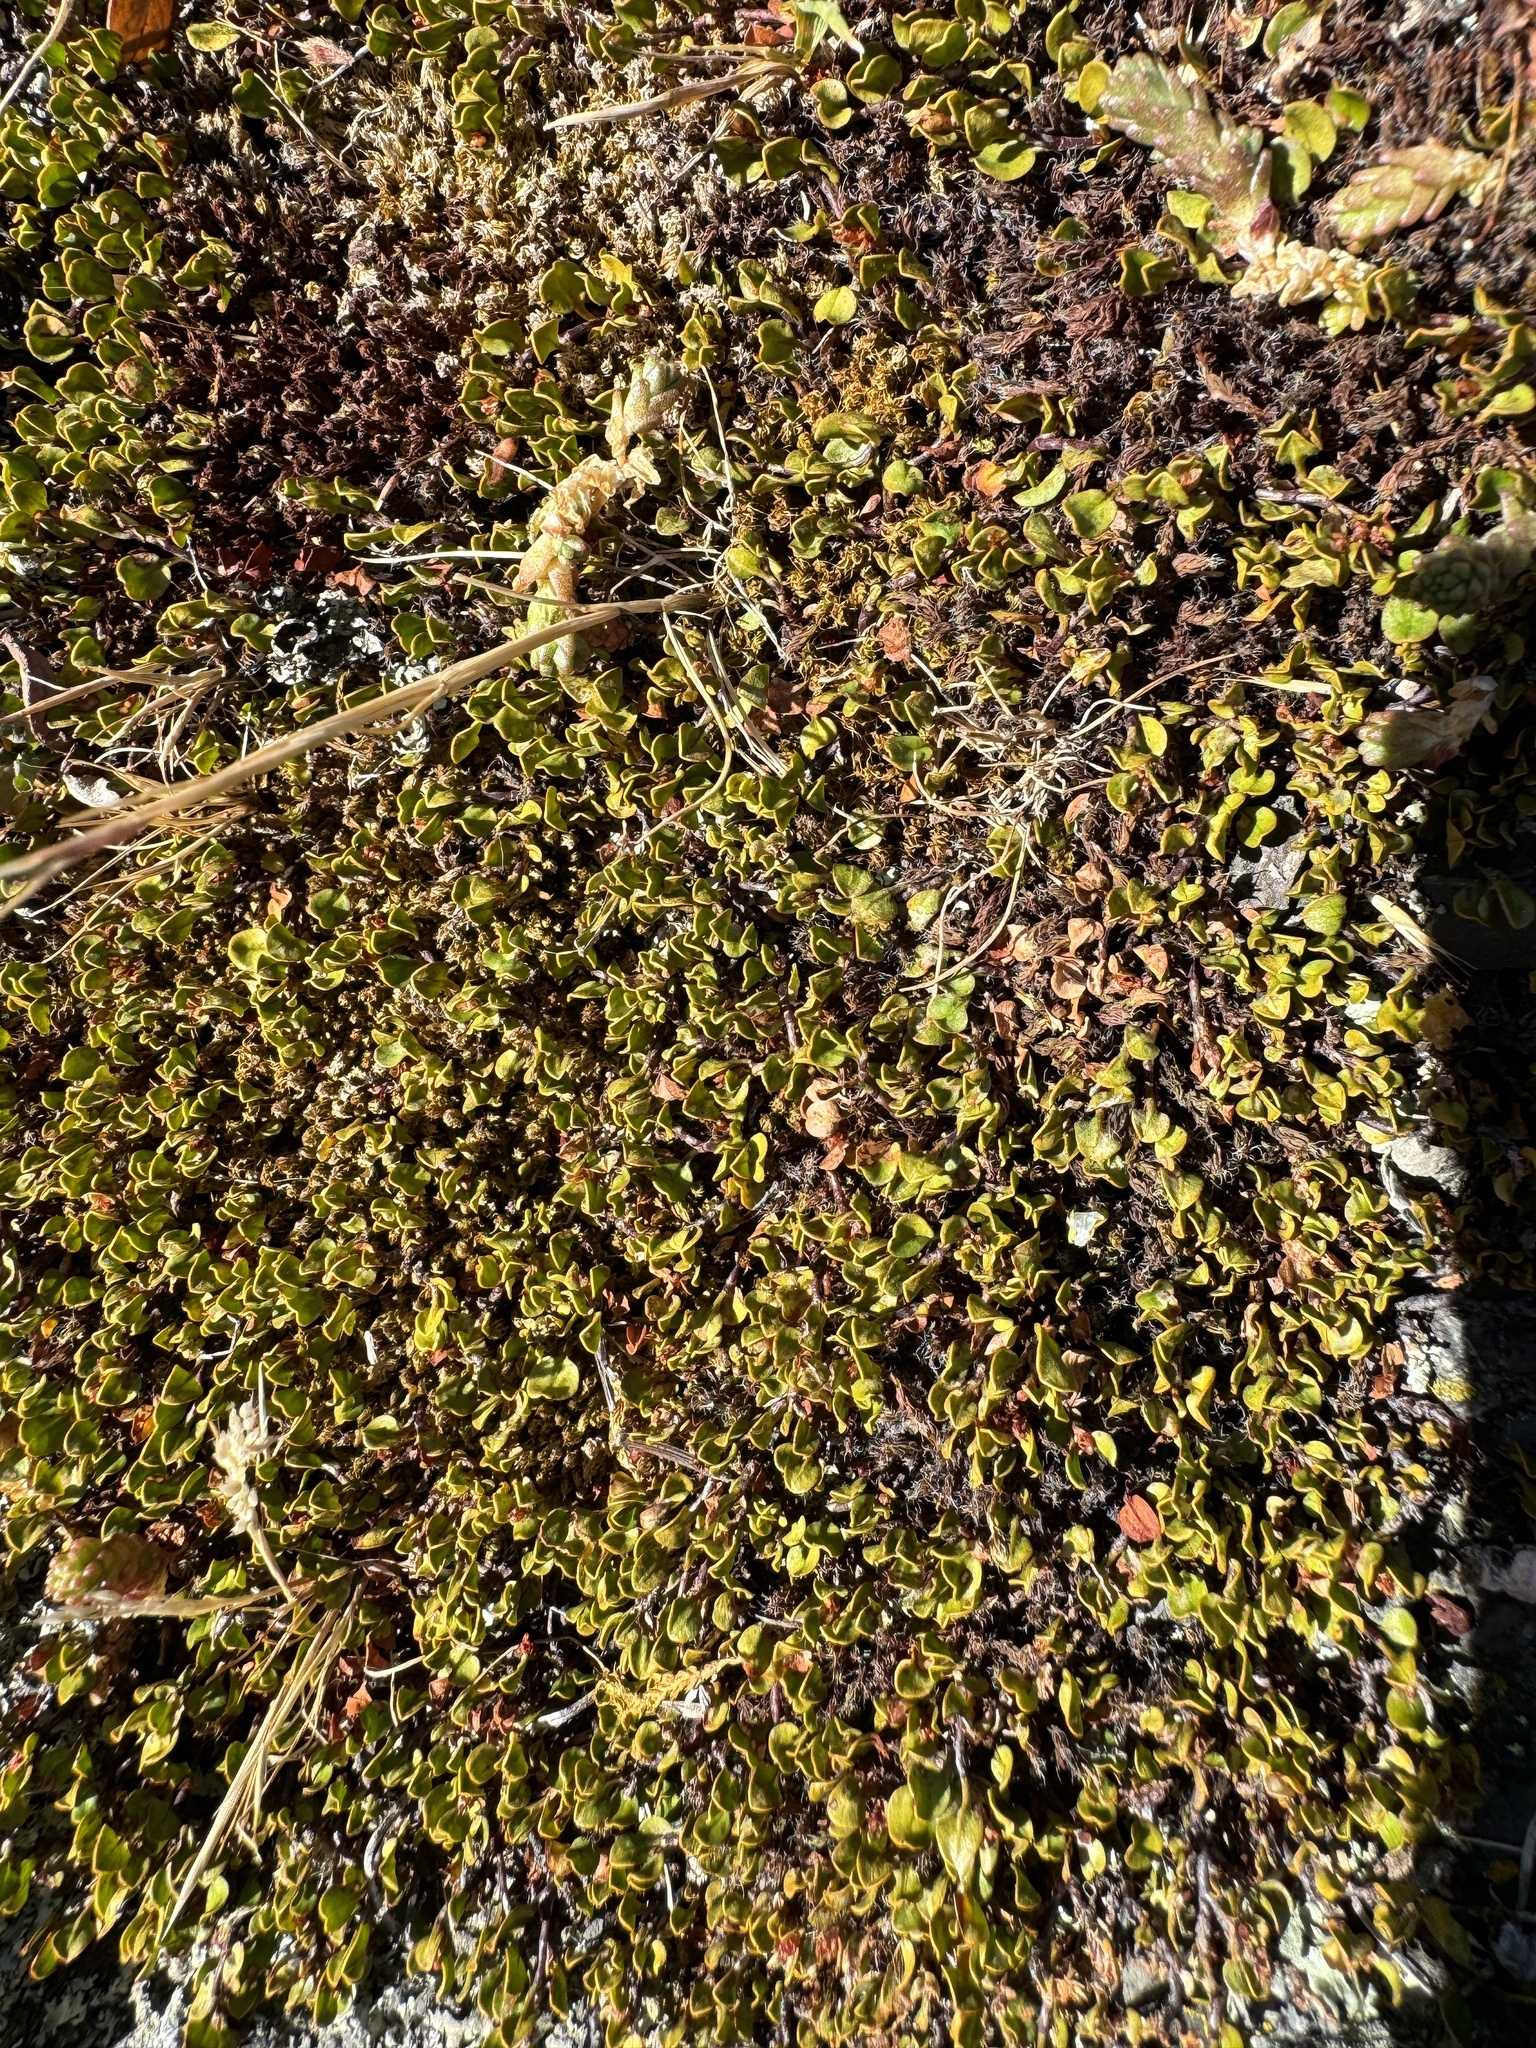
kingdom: Plantae
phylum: Tracheophyta
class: Magnoliopsida
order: Caryophyllales
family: Polygonaceae
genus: Muehlenbeckia
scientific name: Muehlenbeckia axillaris
